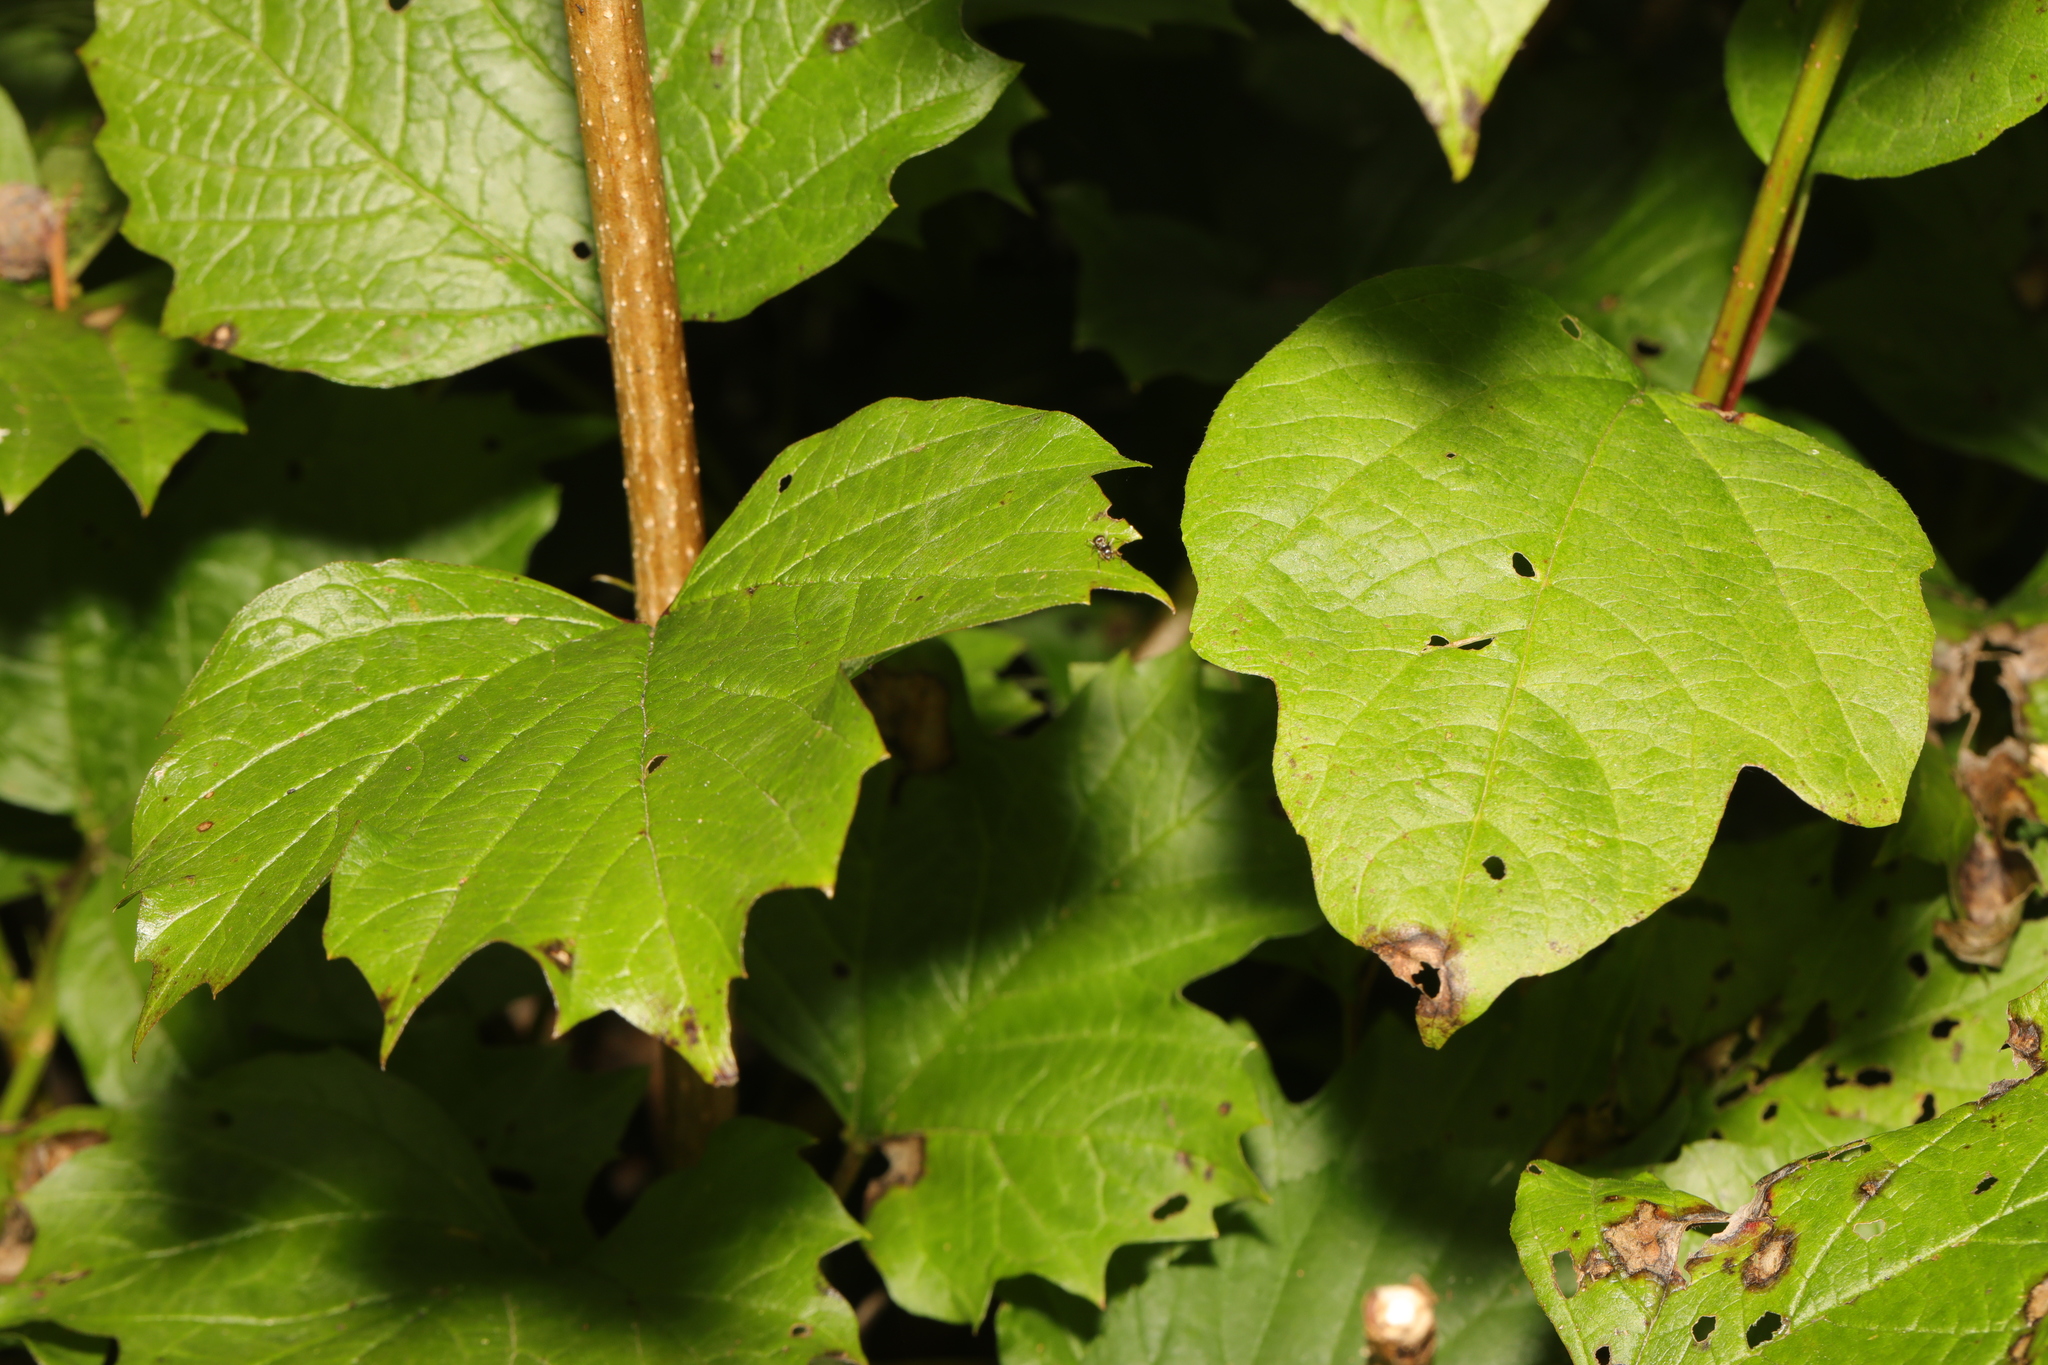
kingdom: Plantae
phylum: Tracheophyta
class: Magnoliopsida
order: Dipsacales
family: Viburnaceae
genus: Viburnum
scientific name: Viburnum opulus
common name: Guelder-rose
